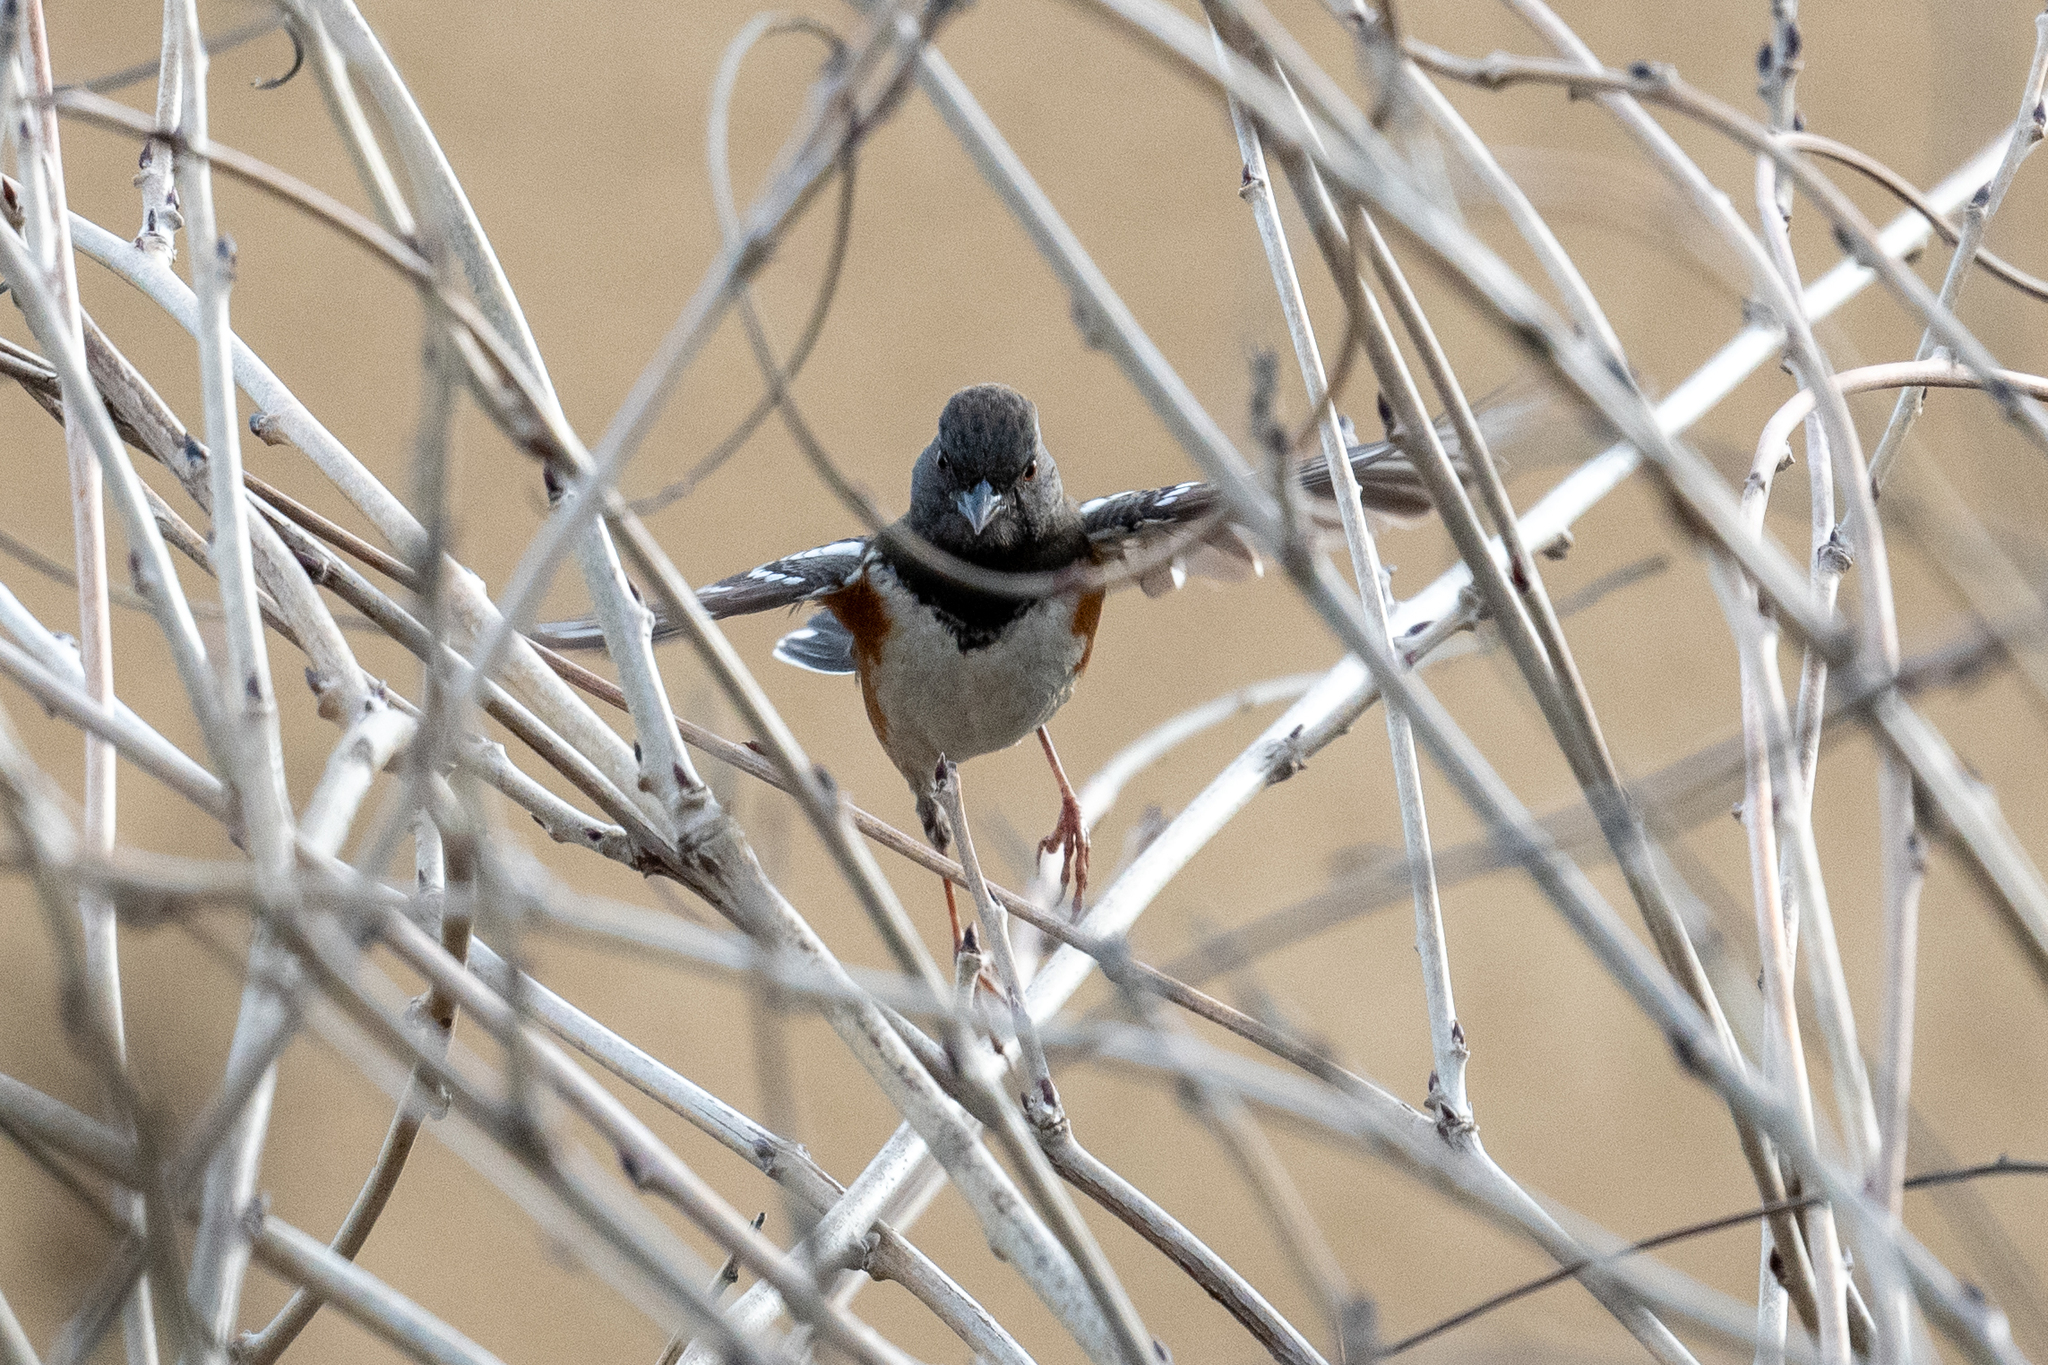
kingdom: Animalia
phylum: Chordata
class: Aves
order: Passeriformes
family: Passerellidae
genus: Pipilo
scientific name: Pipilo maculatus
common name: Spotted towhee
